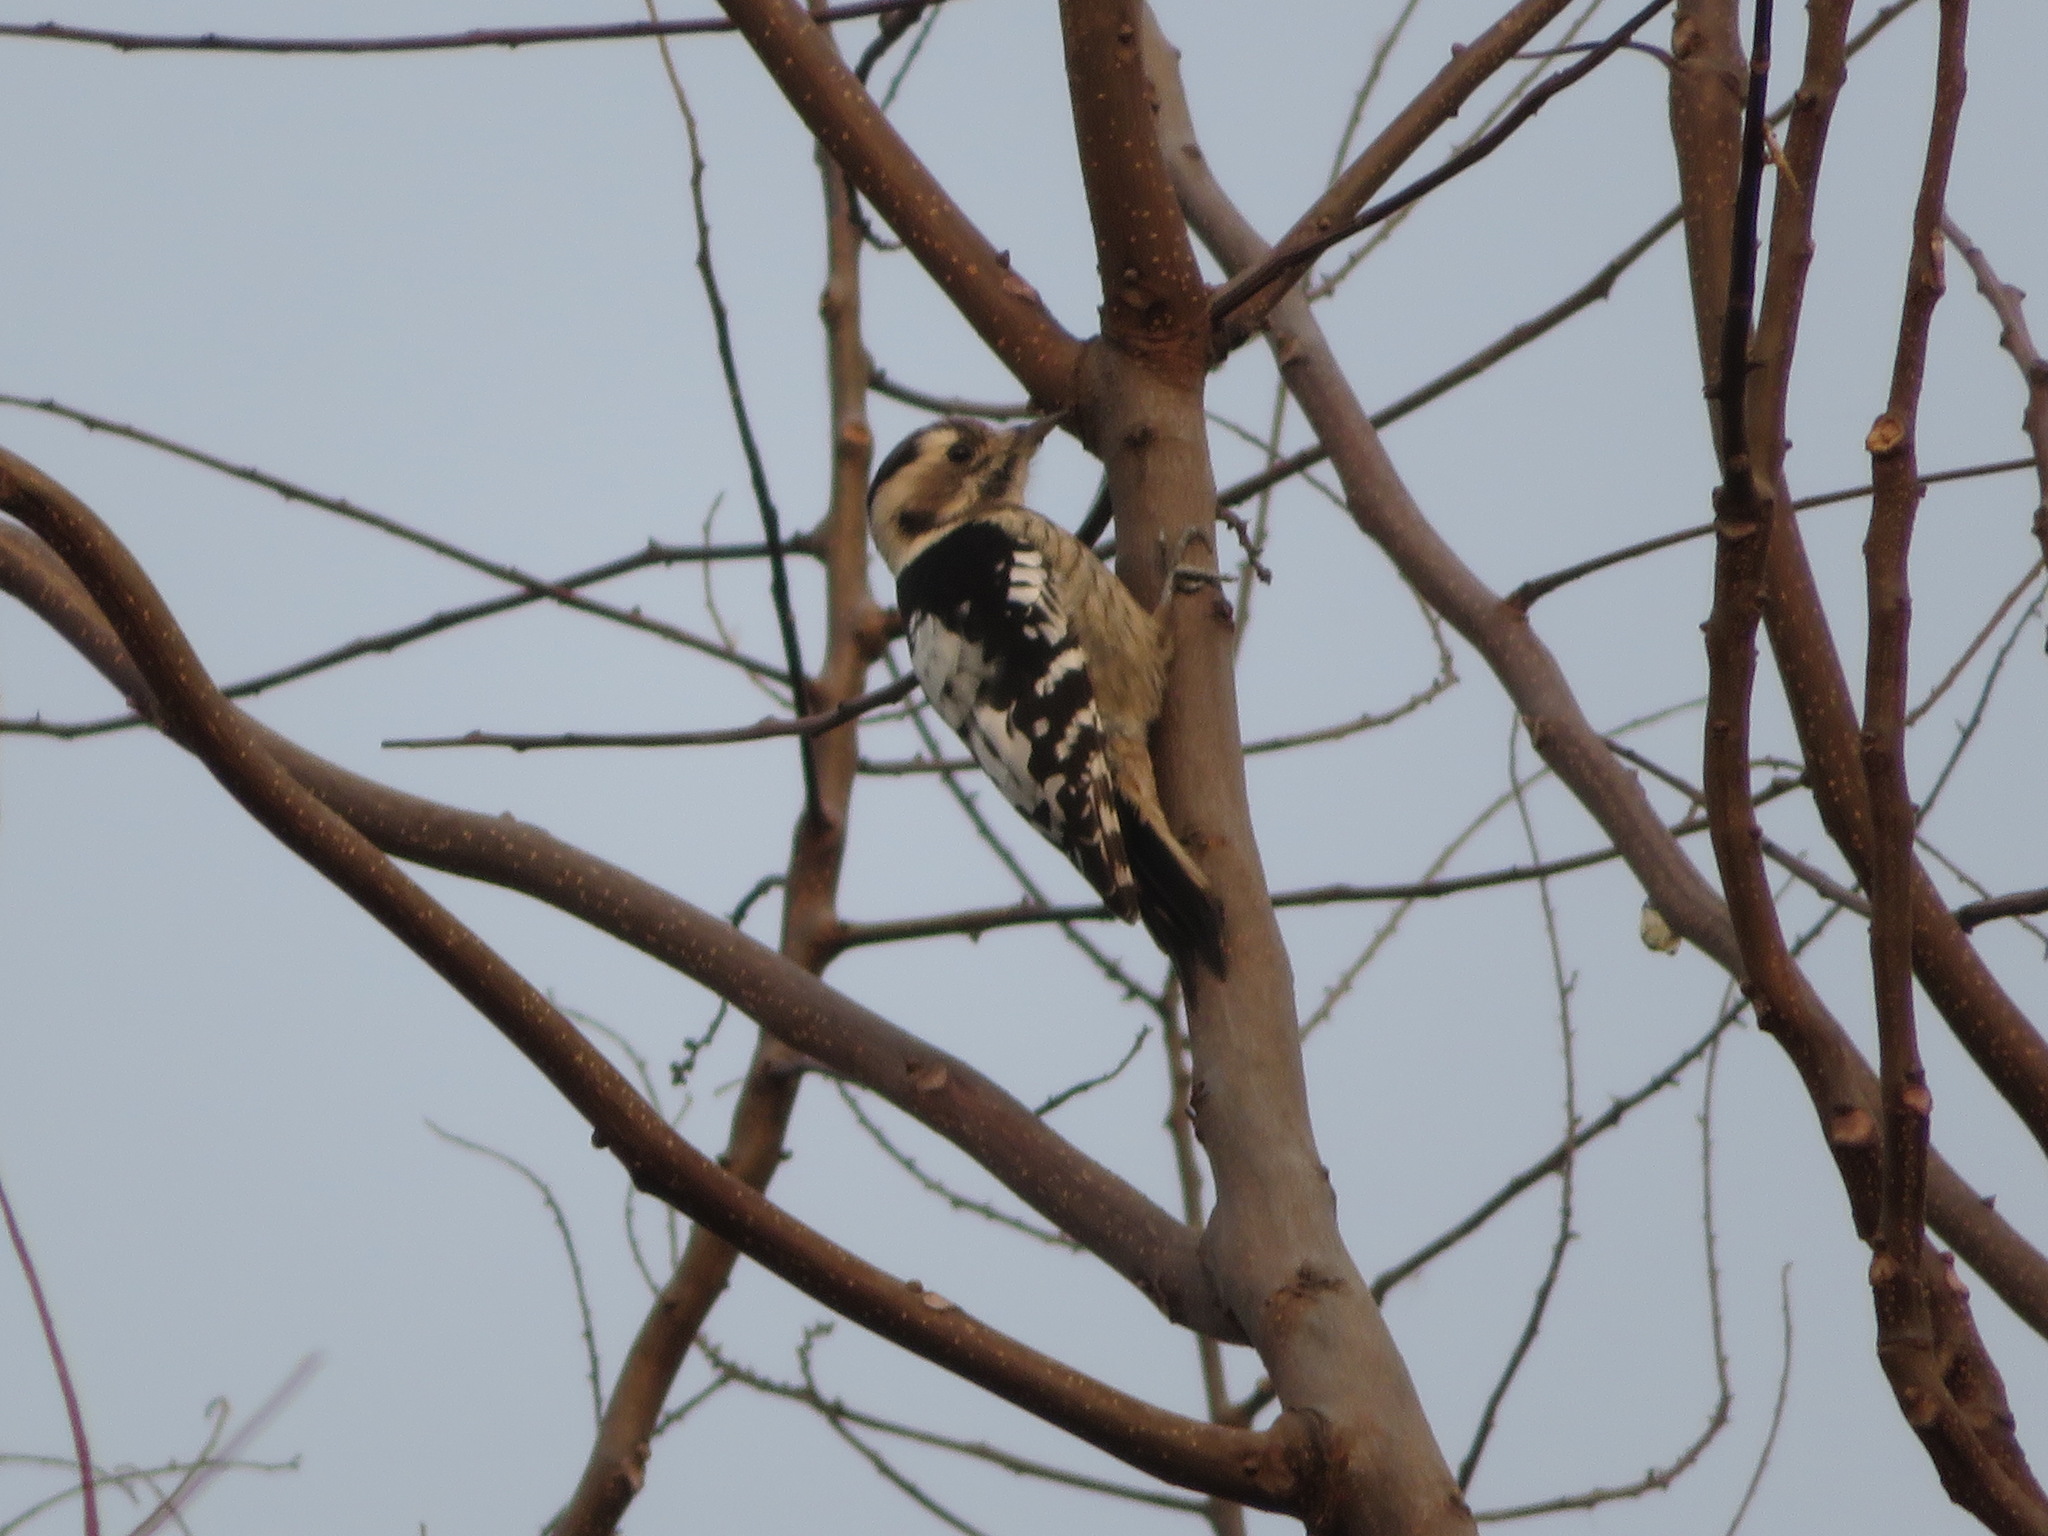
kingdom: Animalia
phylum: Chordata
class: Aves
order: Piciformes
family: Picidae
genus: Yungipicus
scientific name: Yungipicus canicapillus
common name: Grey-capped pygmy woodpecker
